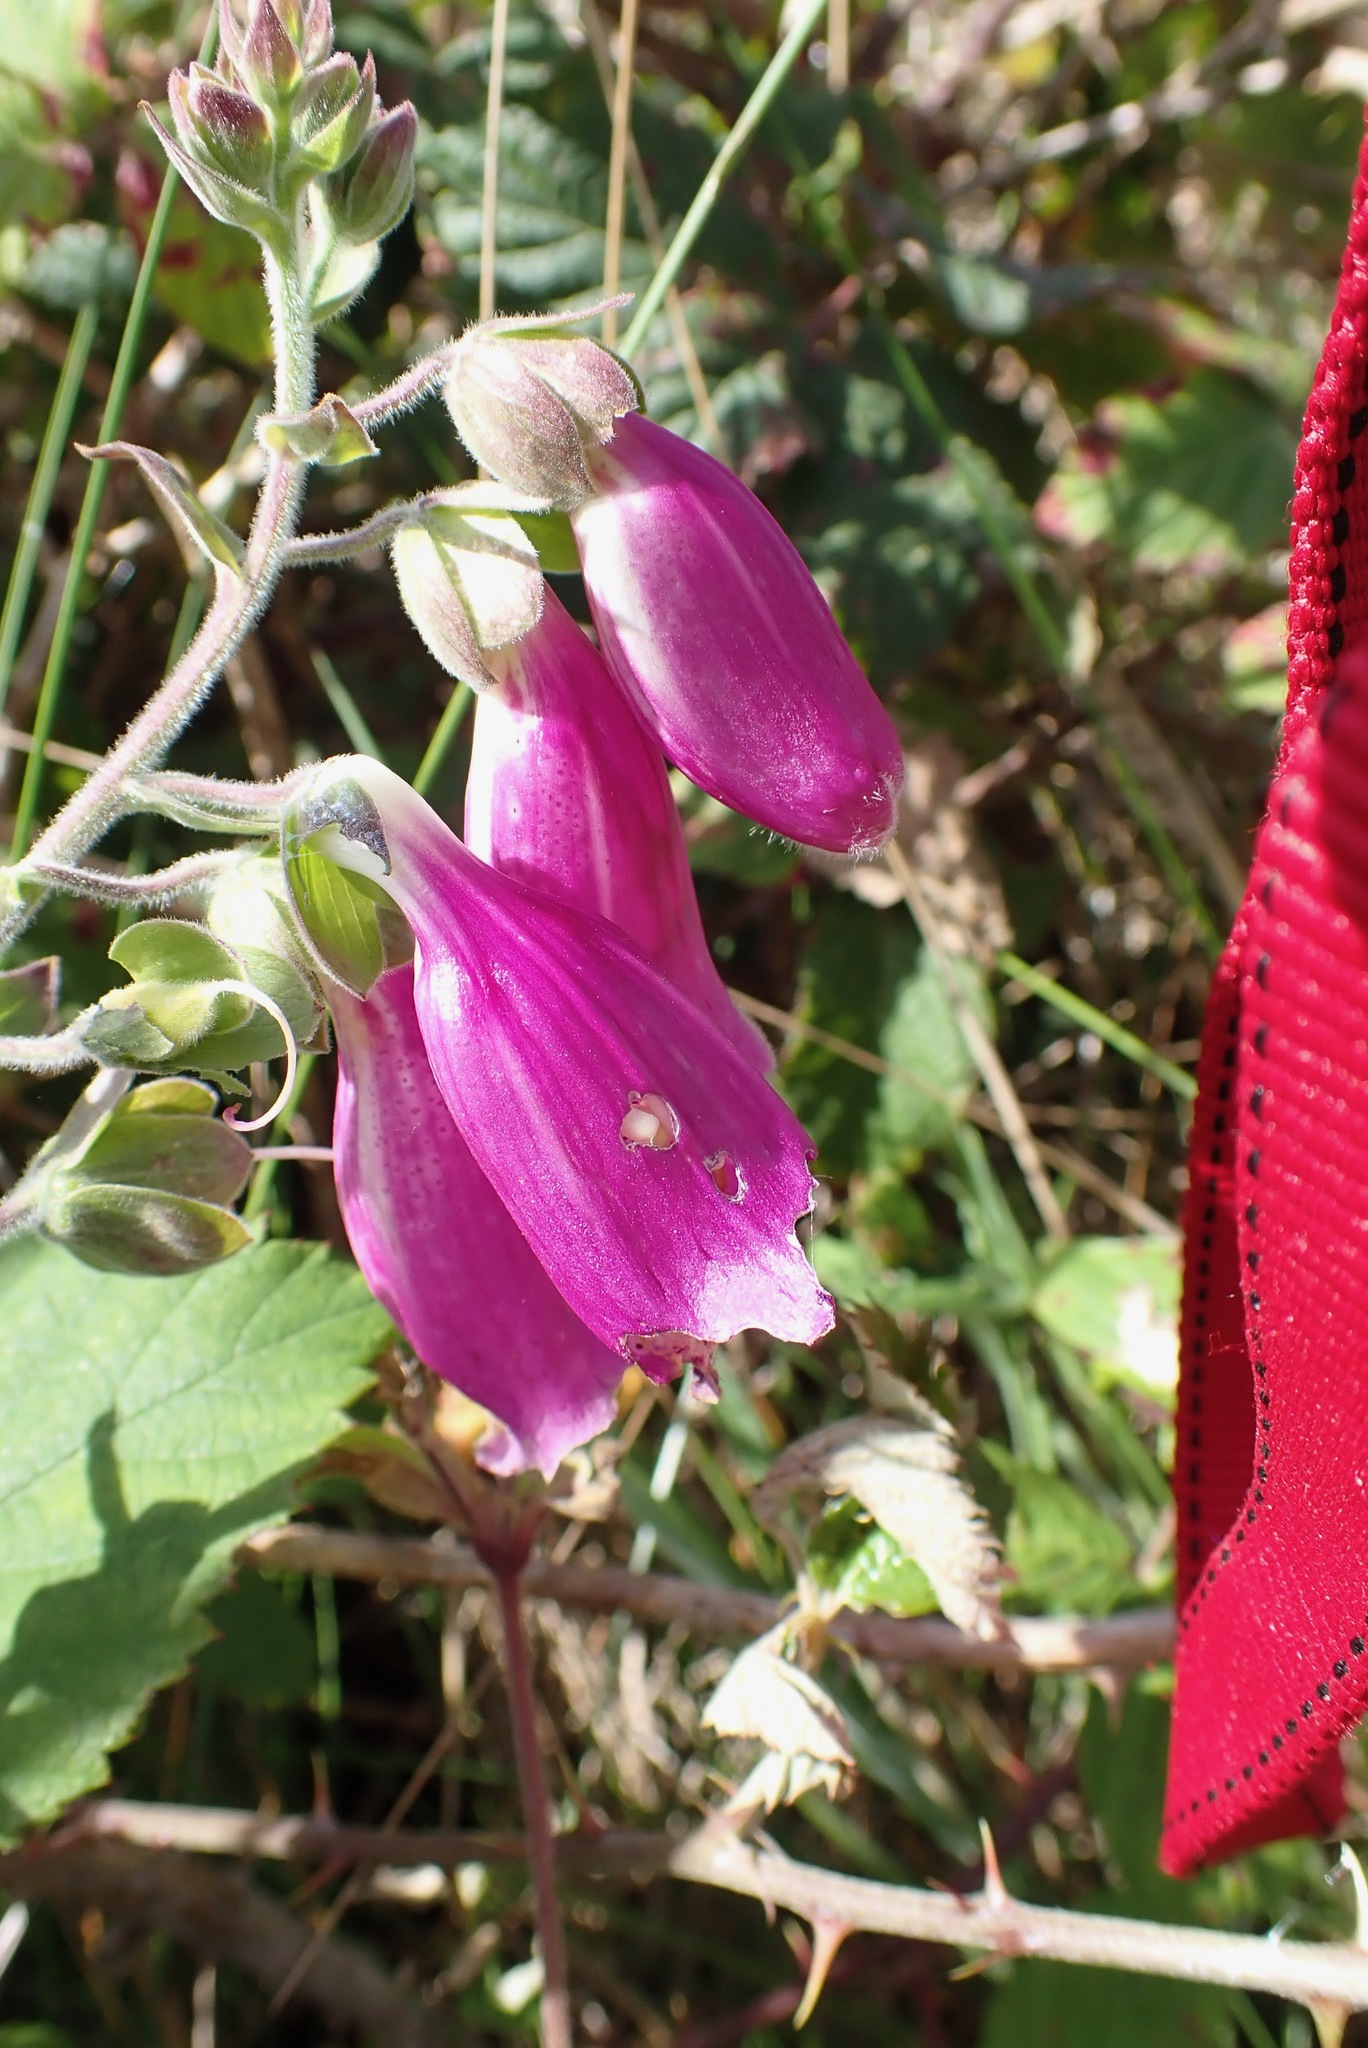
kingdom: Plantae
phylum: Tracheophyta
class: Magnoliopsida
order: Lamiales
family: Plantaginaceae
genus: Digitalis
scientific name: Digitalis purpurea
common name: Foxglove
